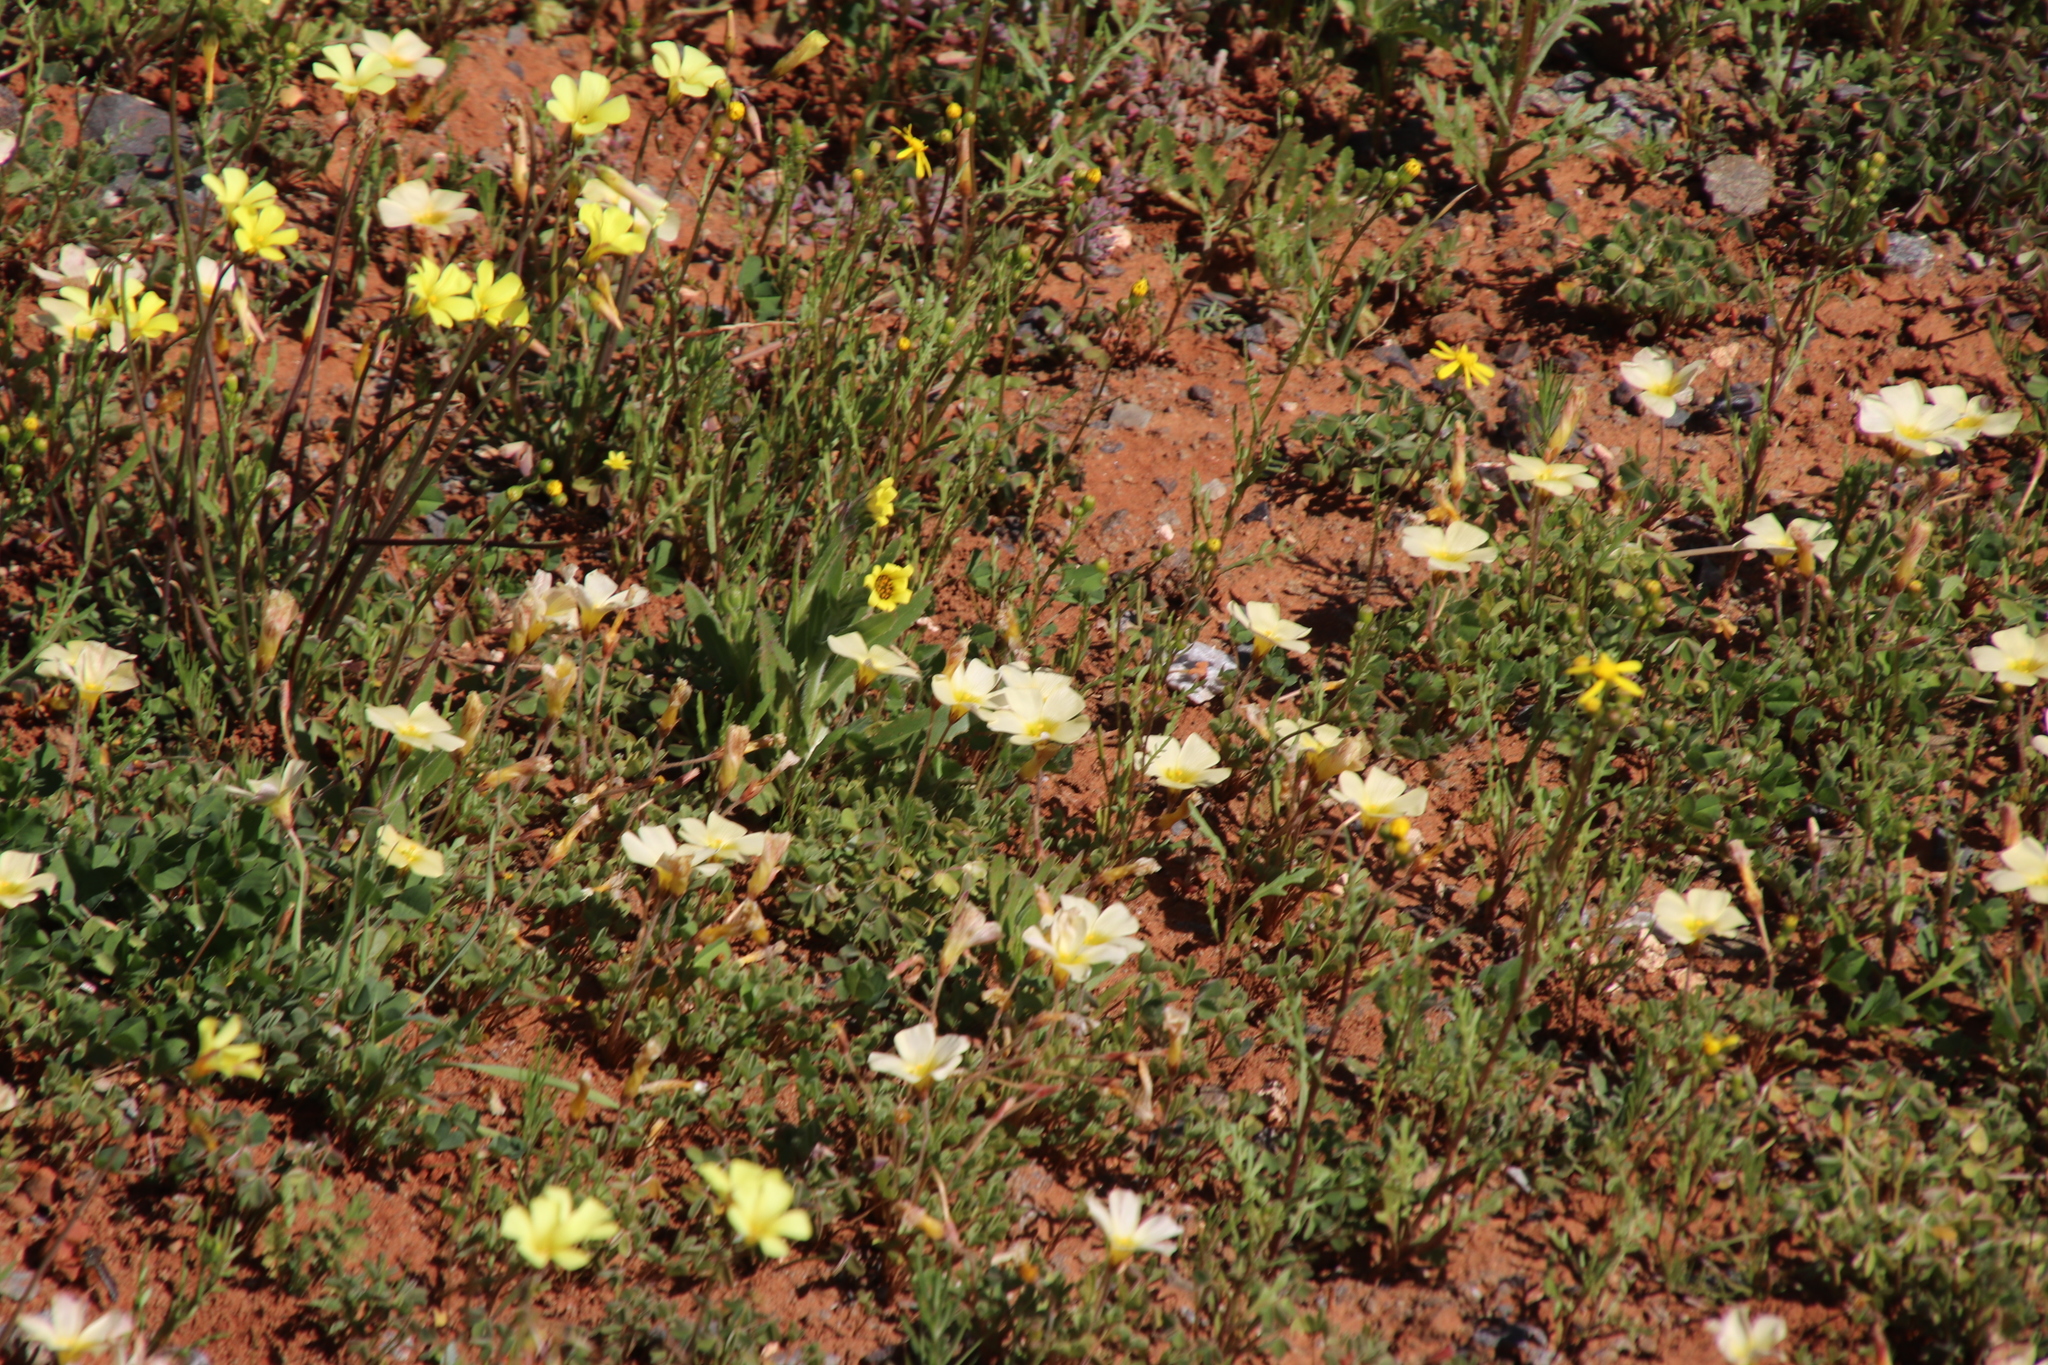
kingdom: Plantae
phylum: Tracheophyta
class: Magnoliopsida
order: Oxalidales
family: Oxalidaceae
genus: Oxalis
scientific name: Oxalis obtusa
